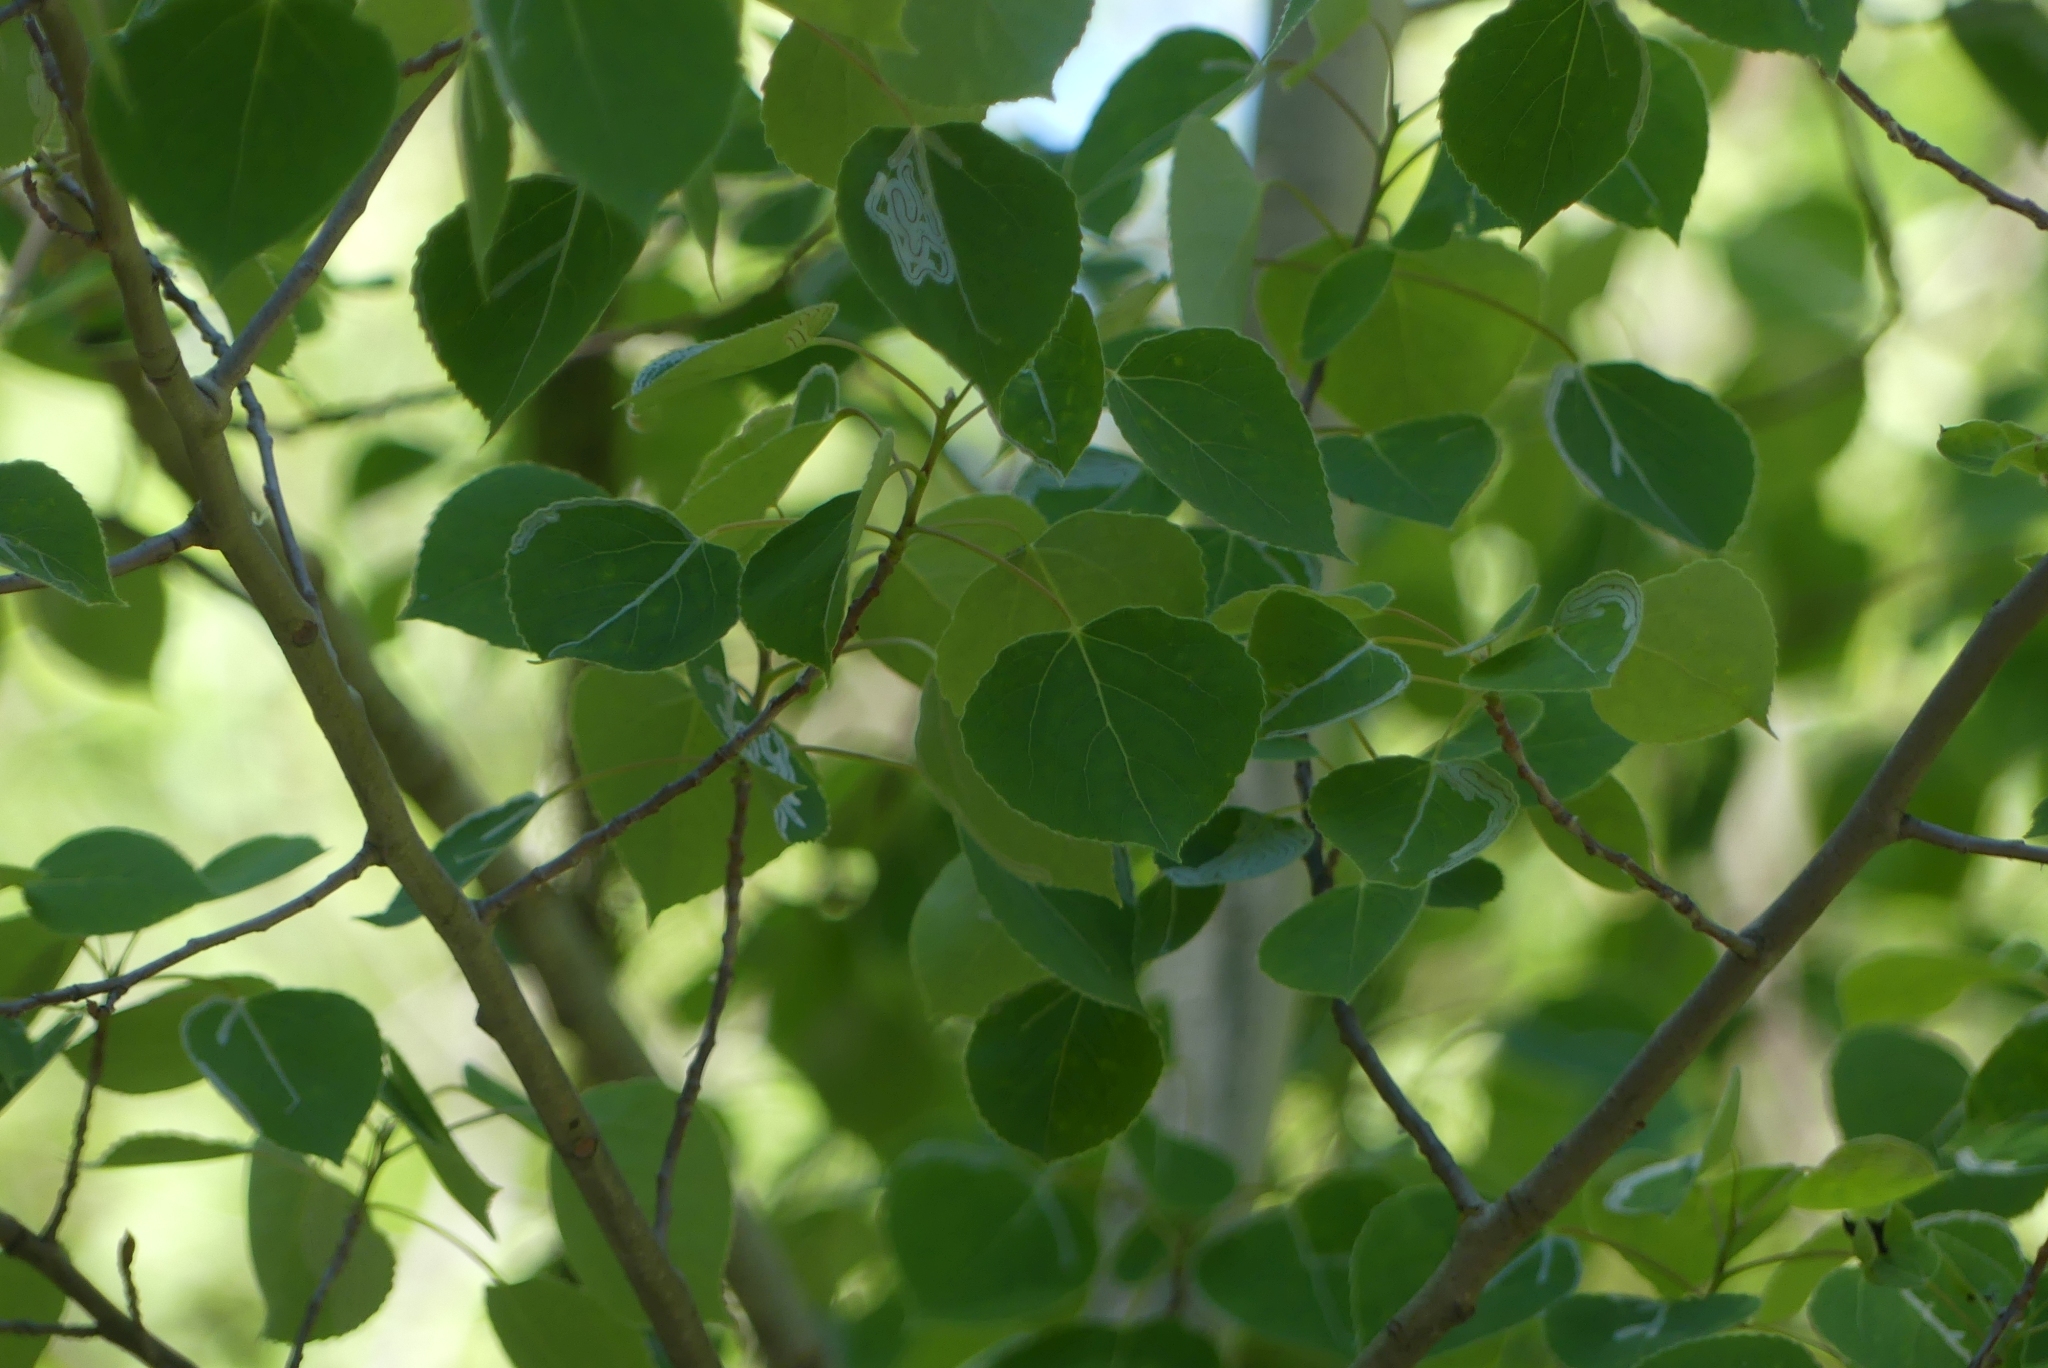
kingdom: Plantae
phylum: Tracheophyta
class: Magnoliopsida
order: Malpighiales
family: Salicaceae
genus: Populus
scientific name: Populus tremuloides
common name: Quaking aspen
